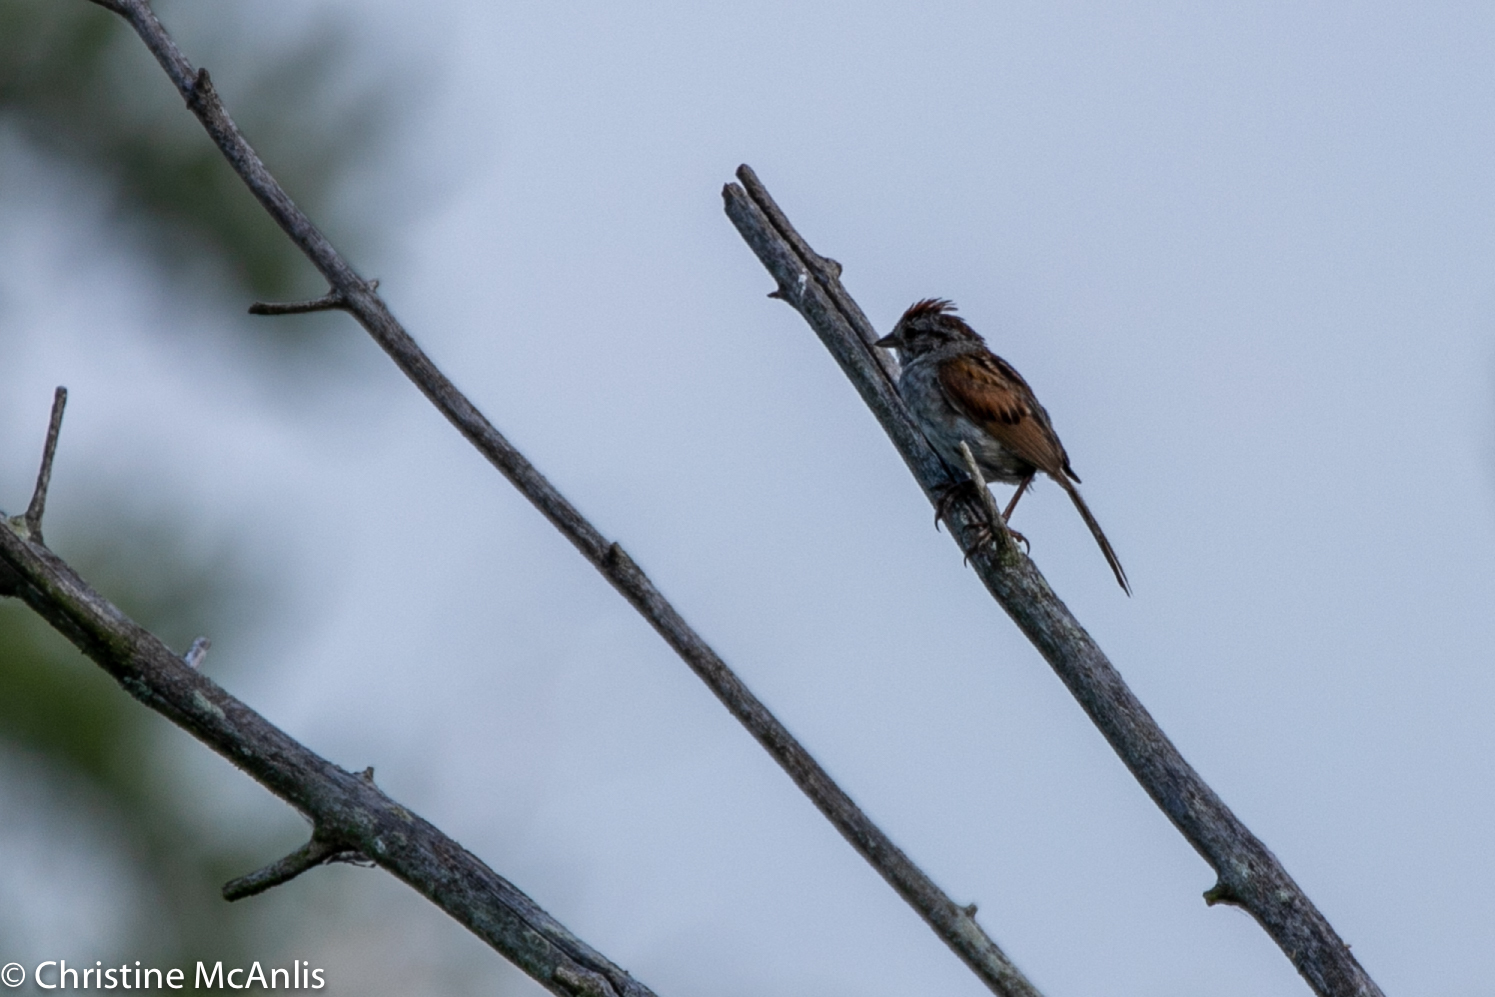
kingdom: Animalia
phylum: Chordata
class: Aves
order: Passeriformes
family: Passerellidae
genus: Melospiza
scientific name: Melospiza georgiana
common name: Swamp sparrow
